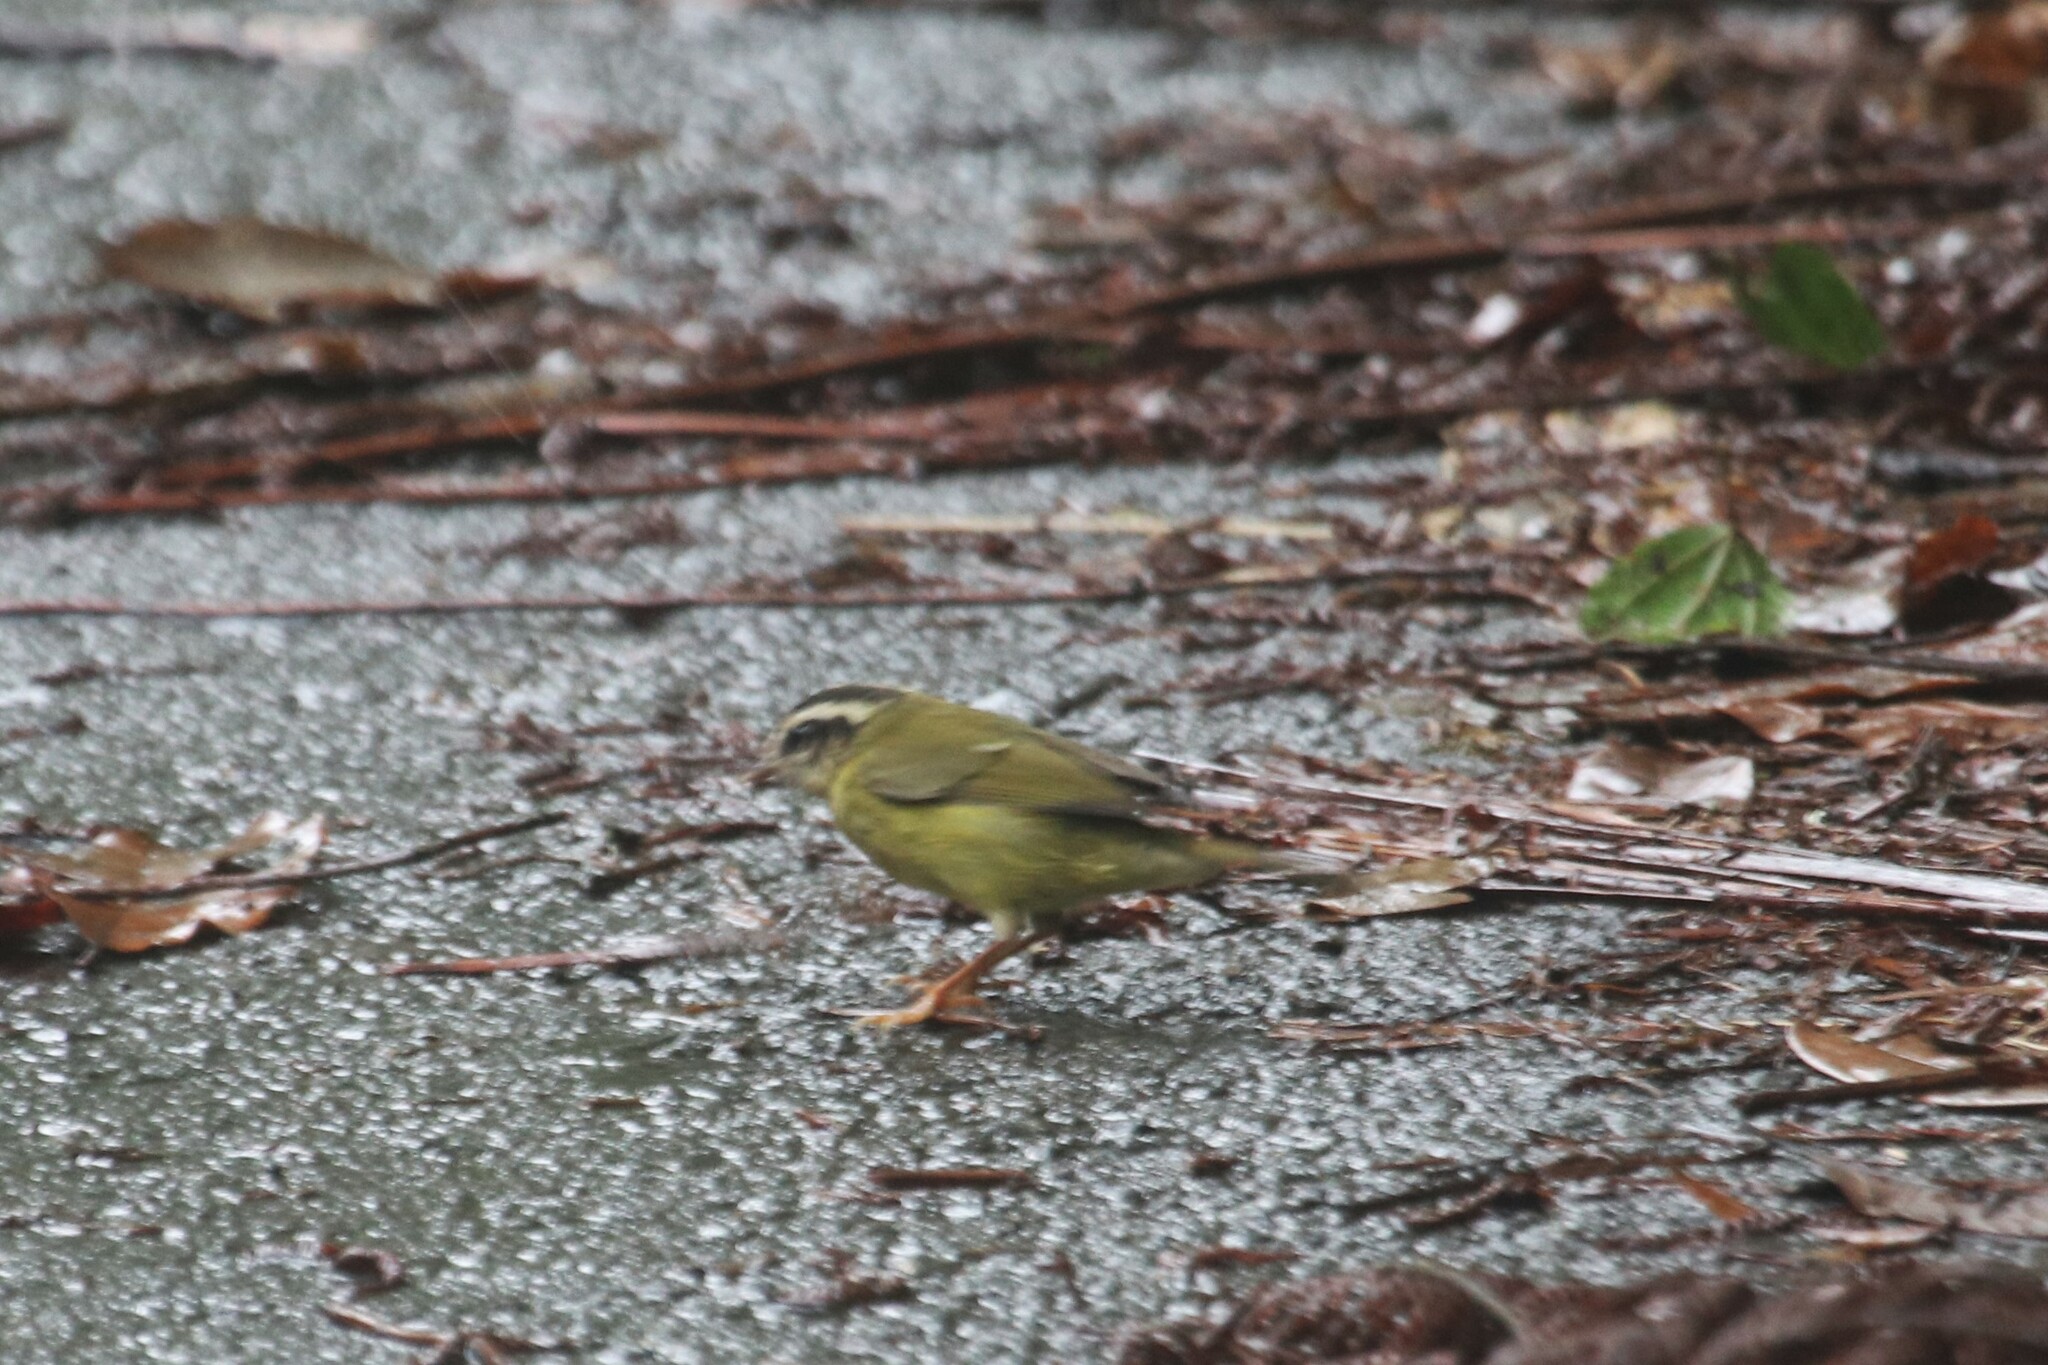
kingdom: Animalia
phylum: Chordata
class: Aves
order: Passeriformes
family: Parulidae
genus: Basileuterus
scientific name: Basileuterus tristriatus
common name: Three-striped warbler
